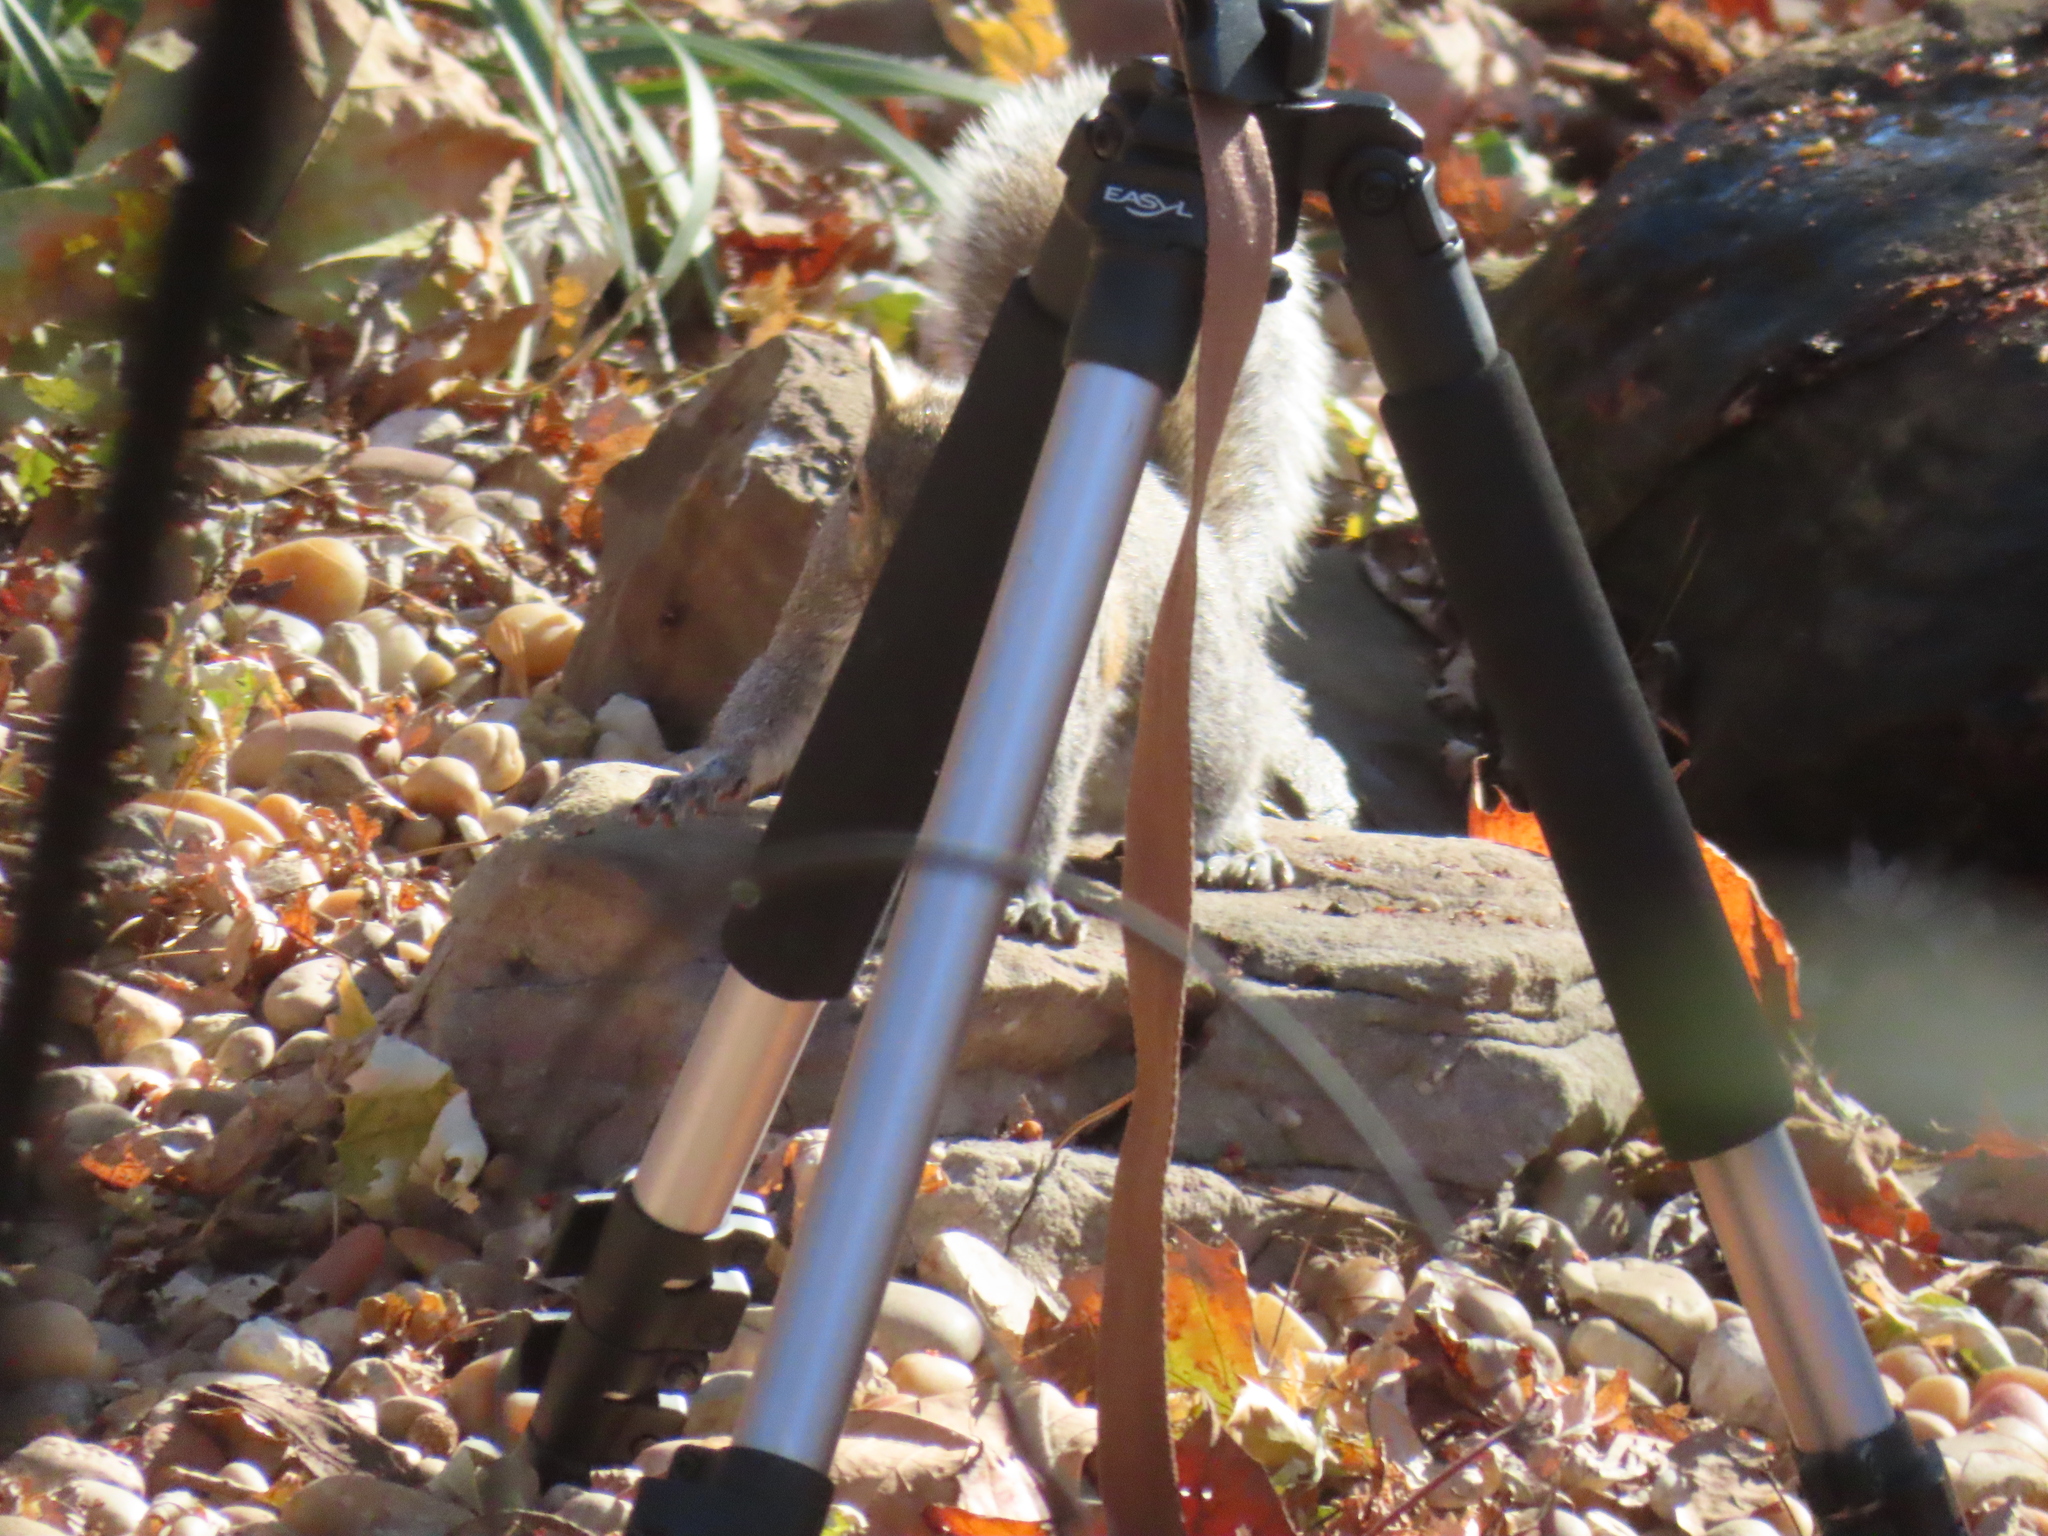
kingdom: Animalia
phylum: Chordata
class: Mammalia
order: Rodentia
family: Sciuridae
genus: Sciurus
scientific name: Sciurus carolinensis
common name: Eastern gray squirrel
